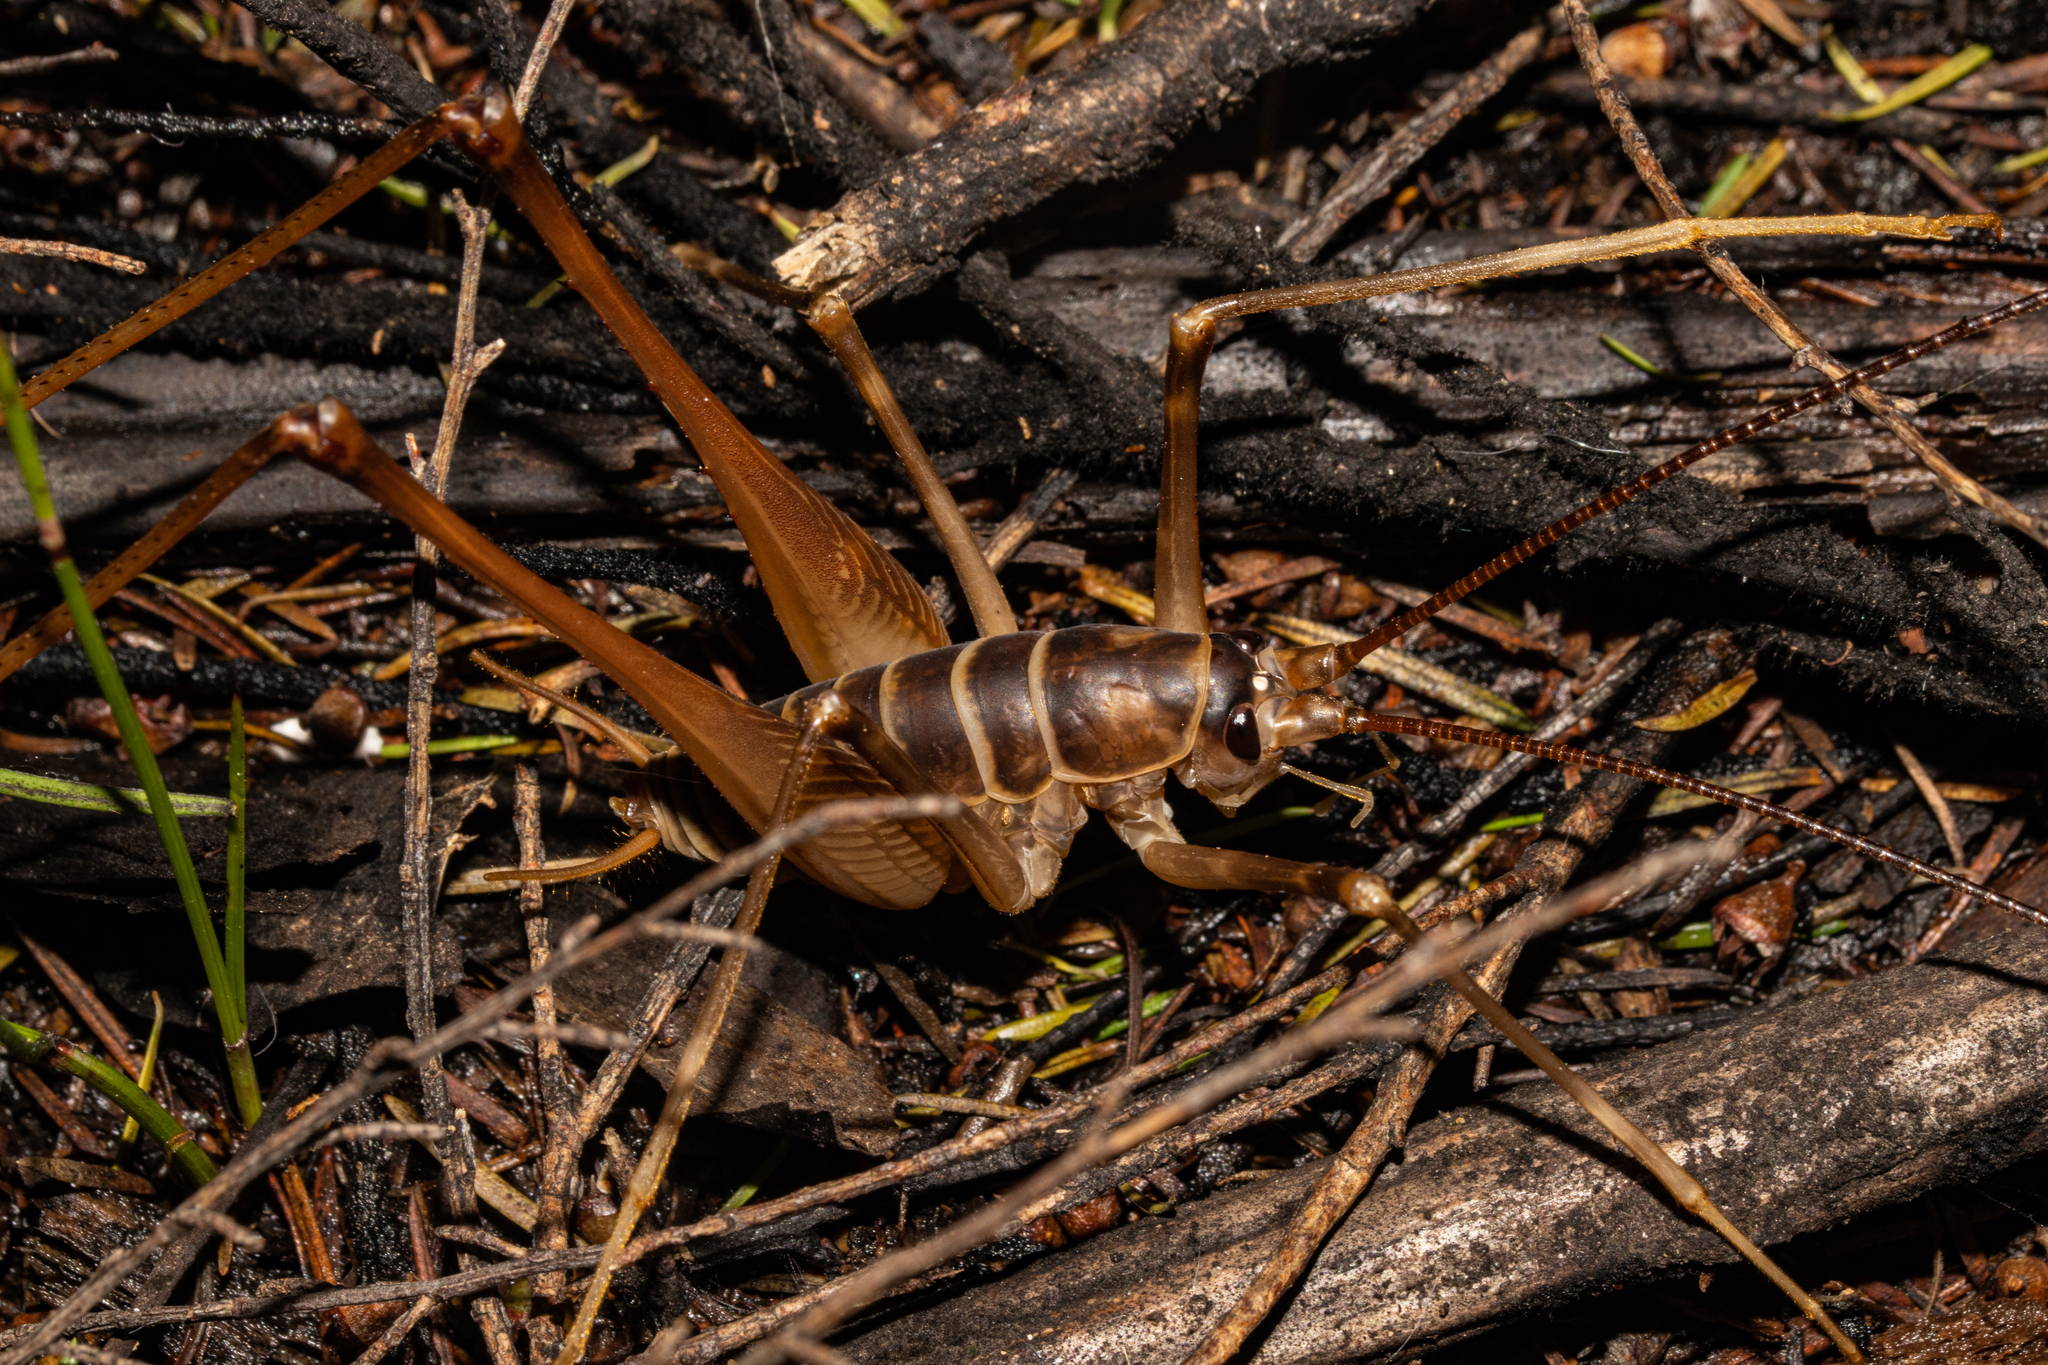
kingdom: Animalia
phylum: Arthropoda
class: Insecta
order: Orthoptera
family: Rhaphidophoridae
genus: Pachyrhamma
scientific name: Pachyrhamma acanthocera
